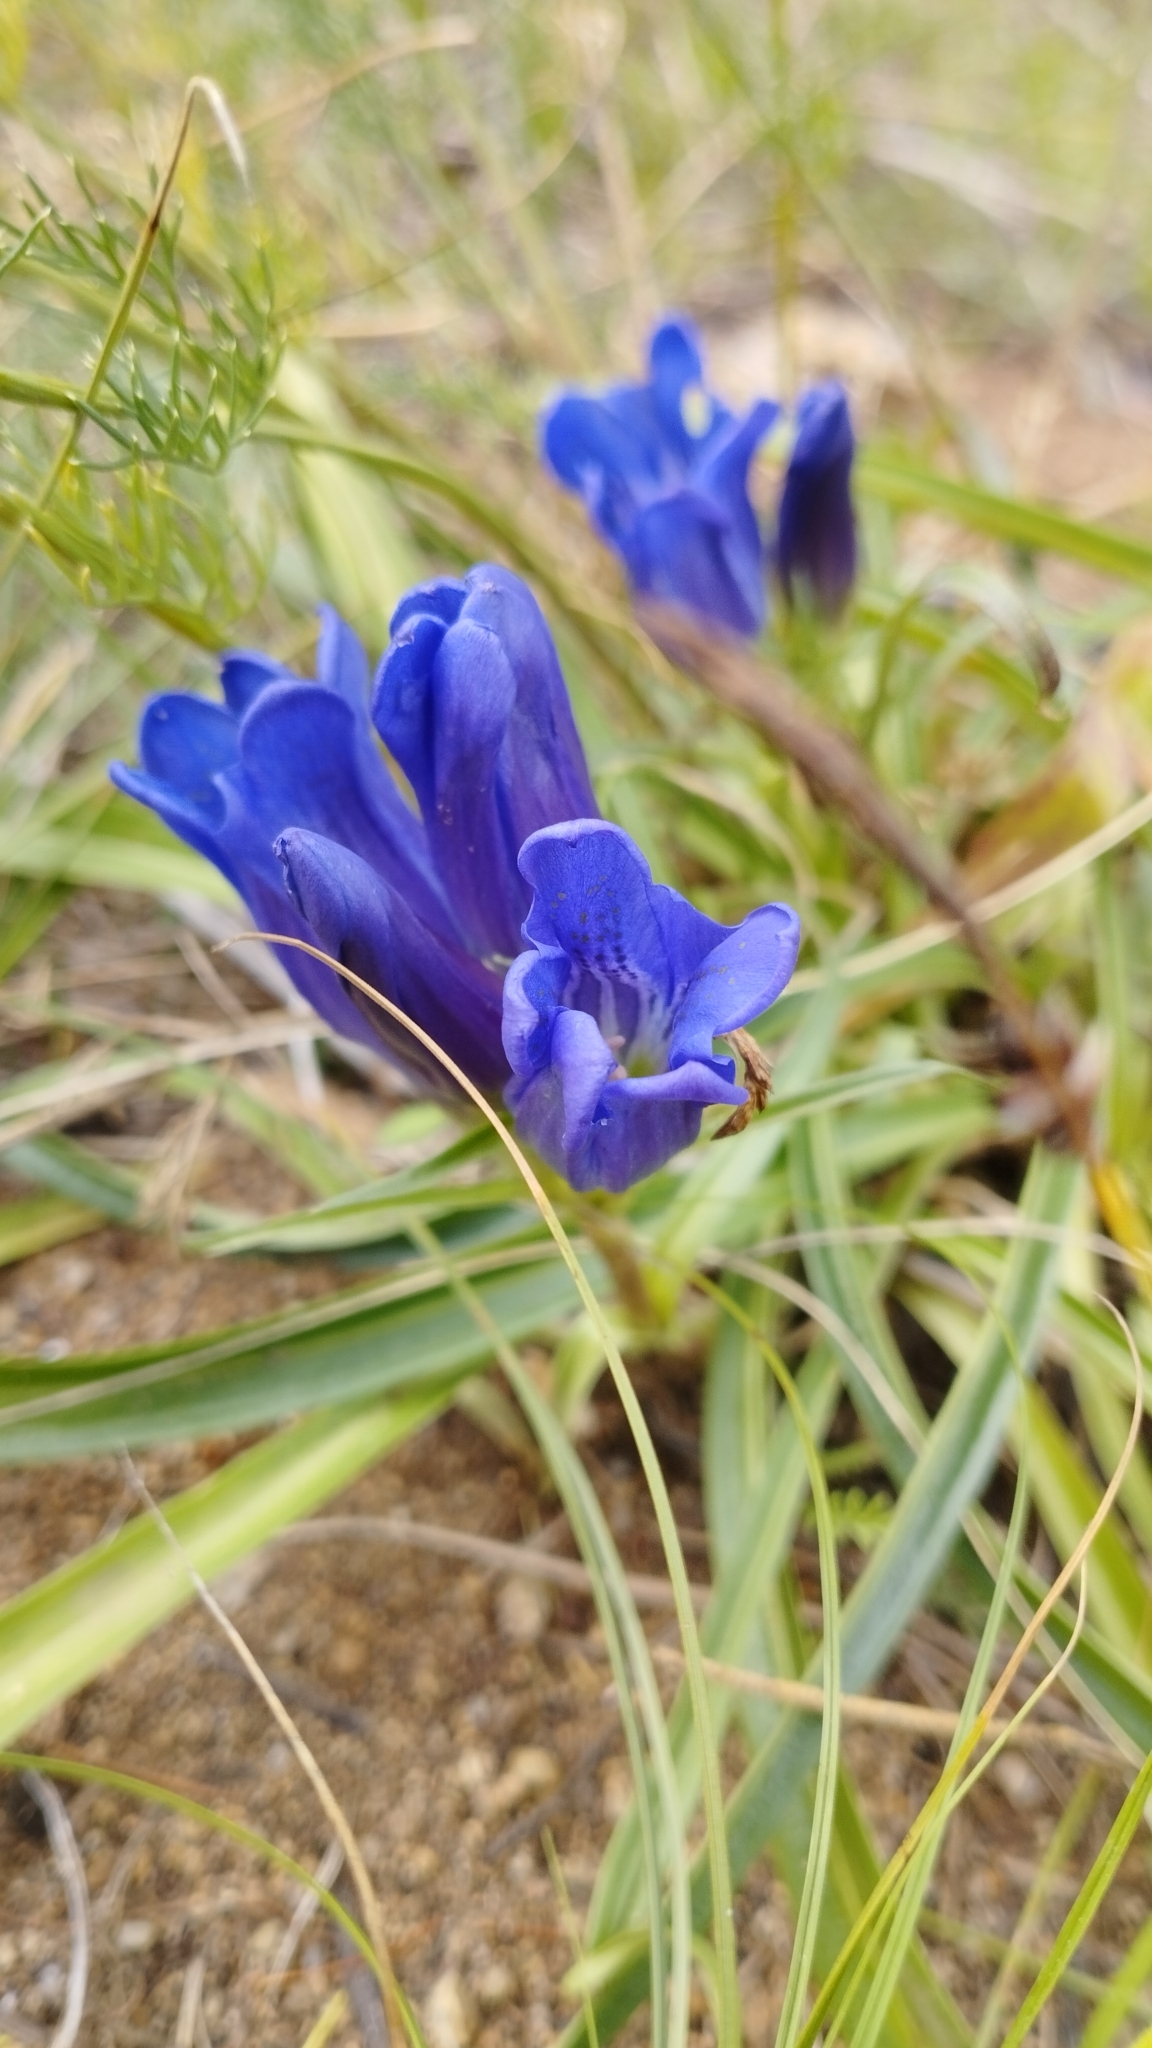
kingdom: Plantae
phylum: Tracheophyta
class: Magnoliopsida
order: Gentianales
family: Gentianaceae
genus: Gentiana
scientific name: Gentiana decumbens
